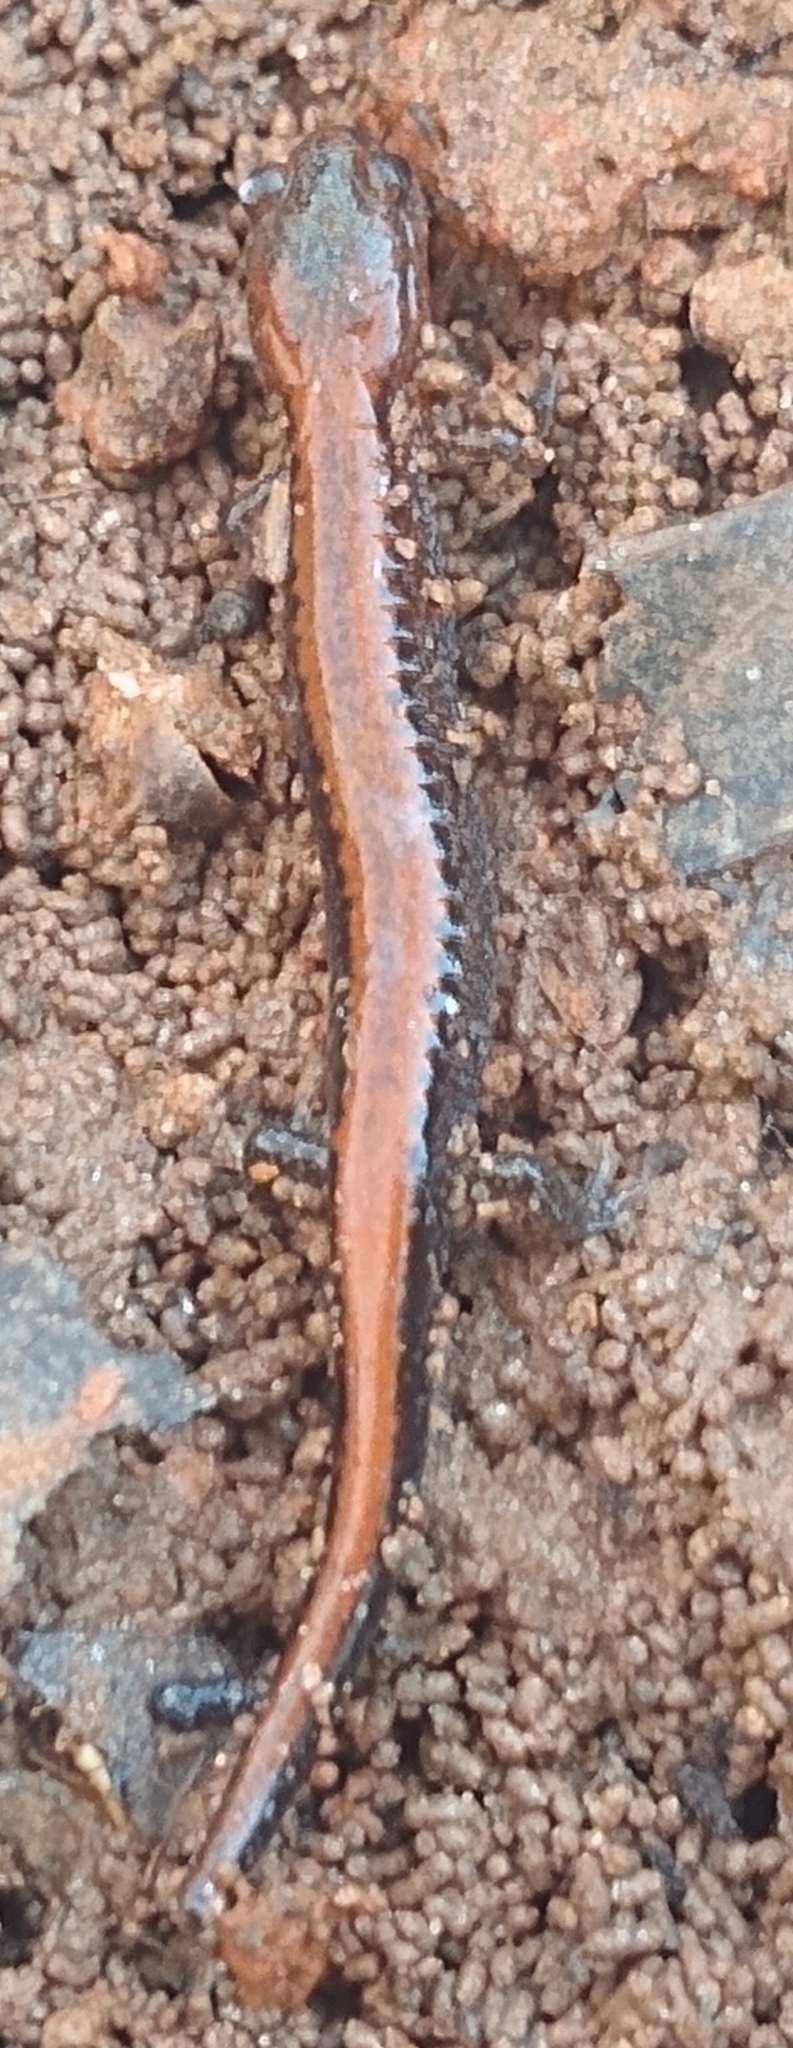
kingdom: Animalia
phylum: Chordata
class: Amphibia
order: Caudata
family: Plethodontidae
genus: Plethodon
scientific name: Plethodon cinereus
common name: Redback salamander
